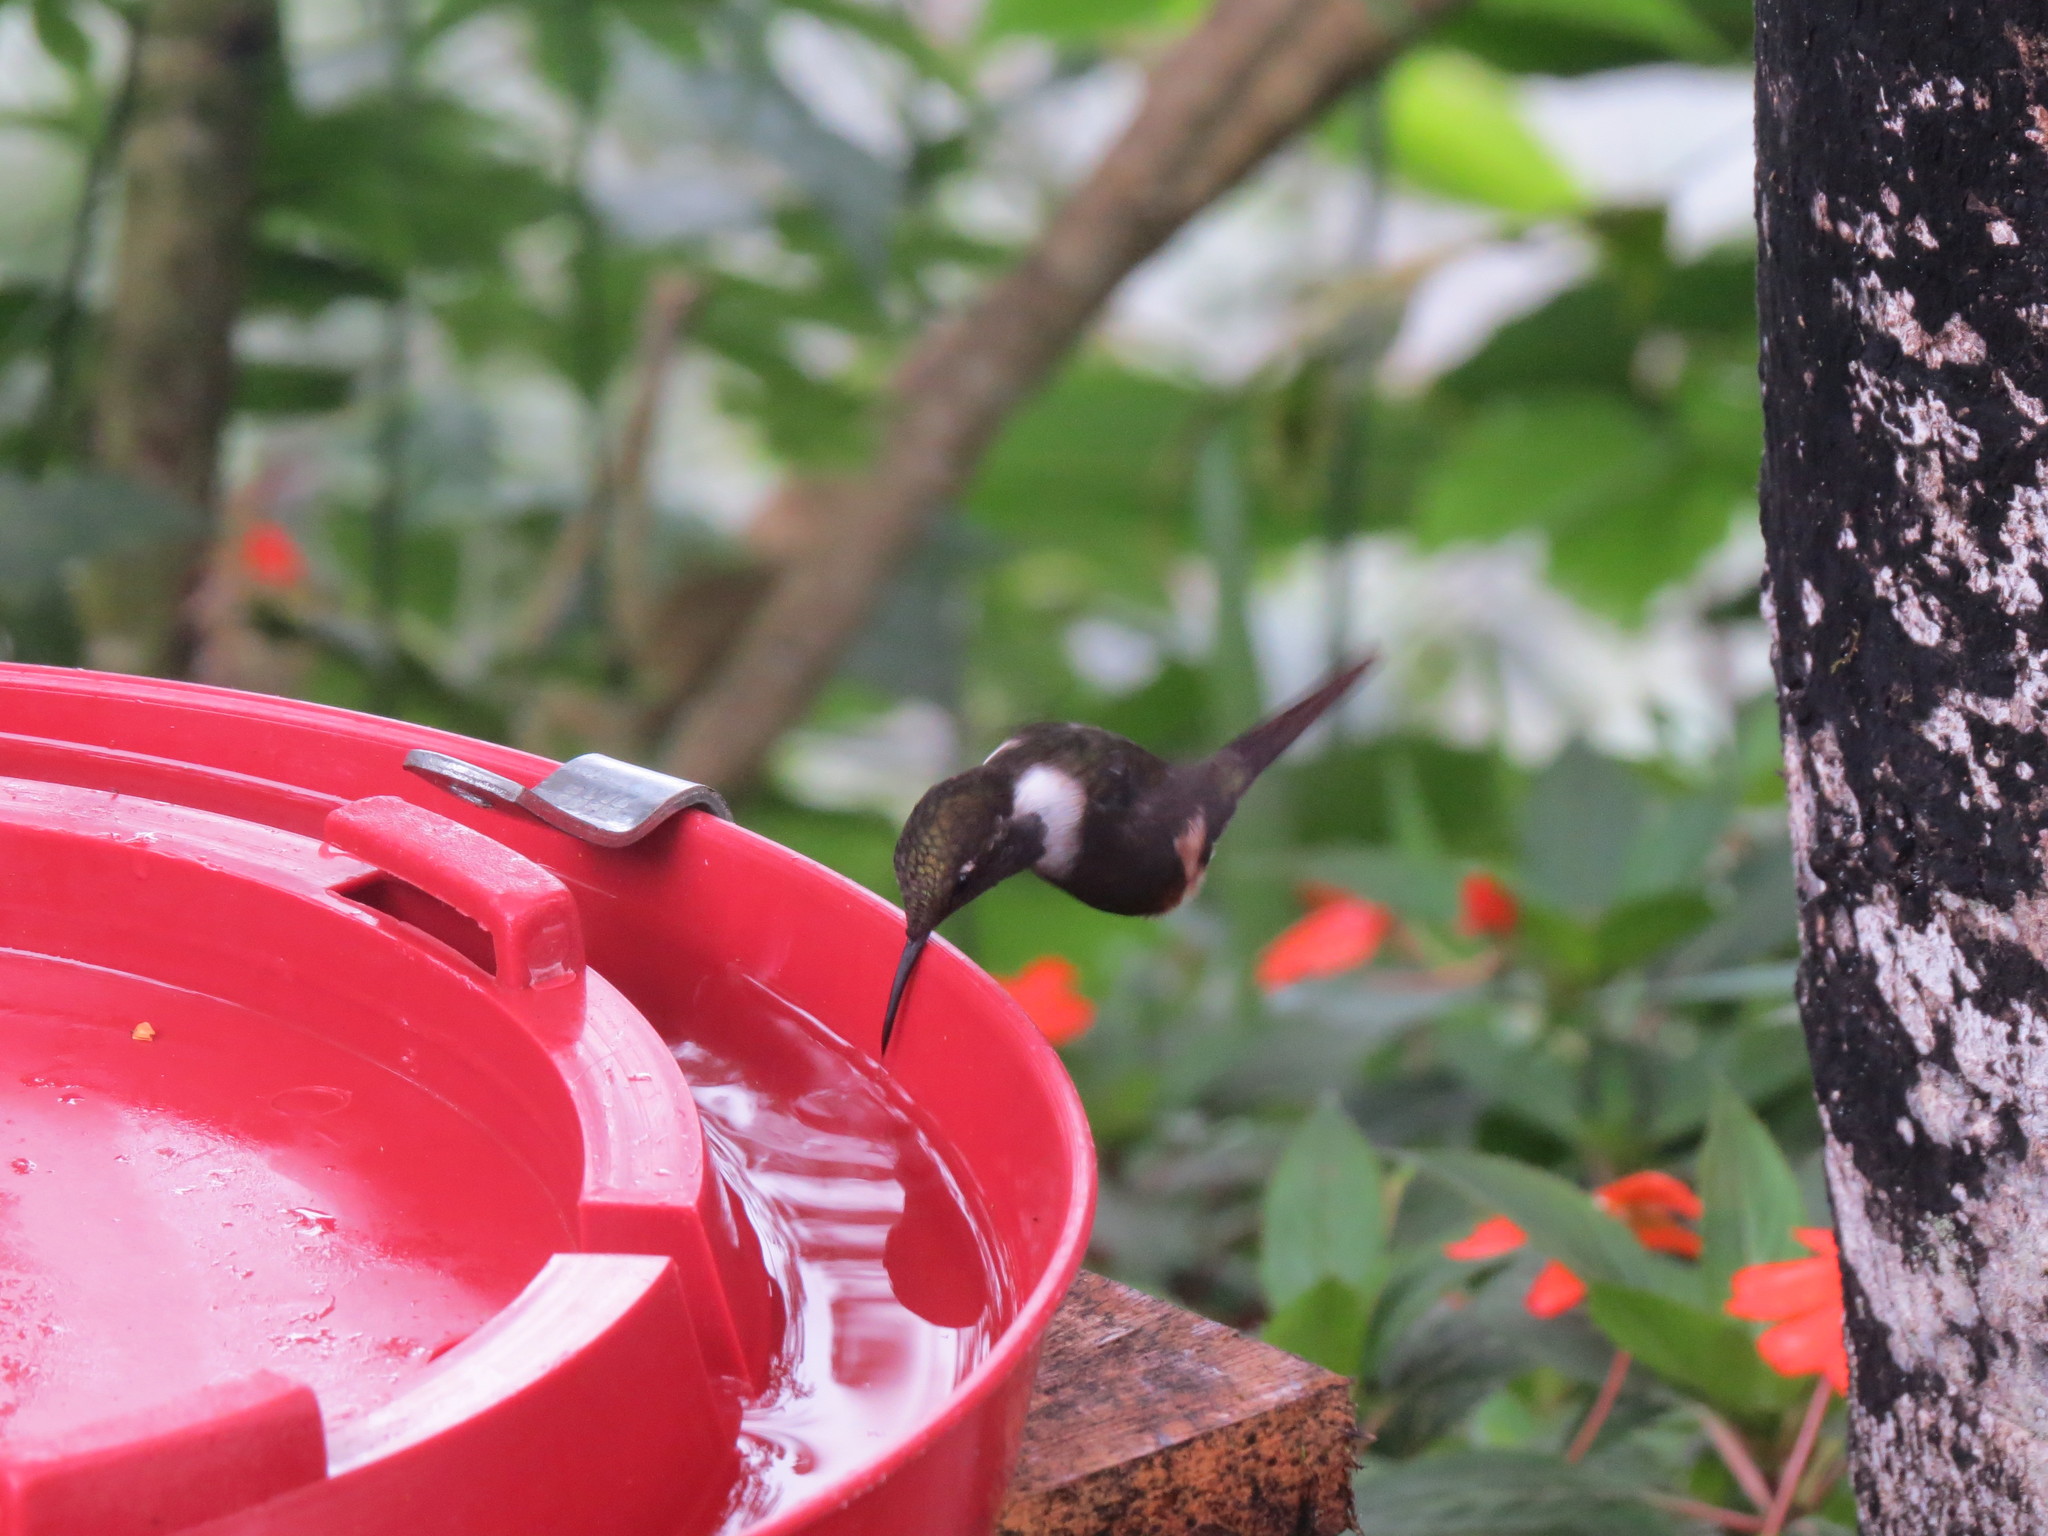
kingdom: Animalia
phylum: Chordata
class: Aves
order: Apodiformes
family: Trochilidae
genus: Coeligena
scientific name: Coeligena torquata
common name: Collared inca
